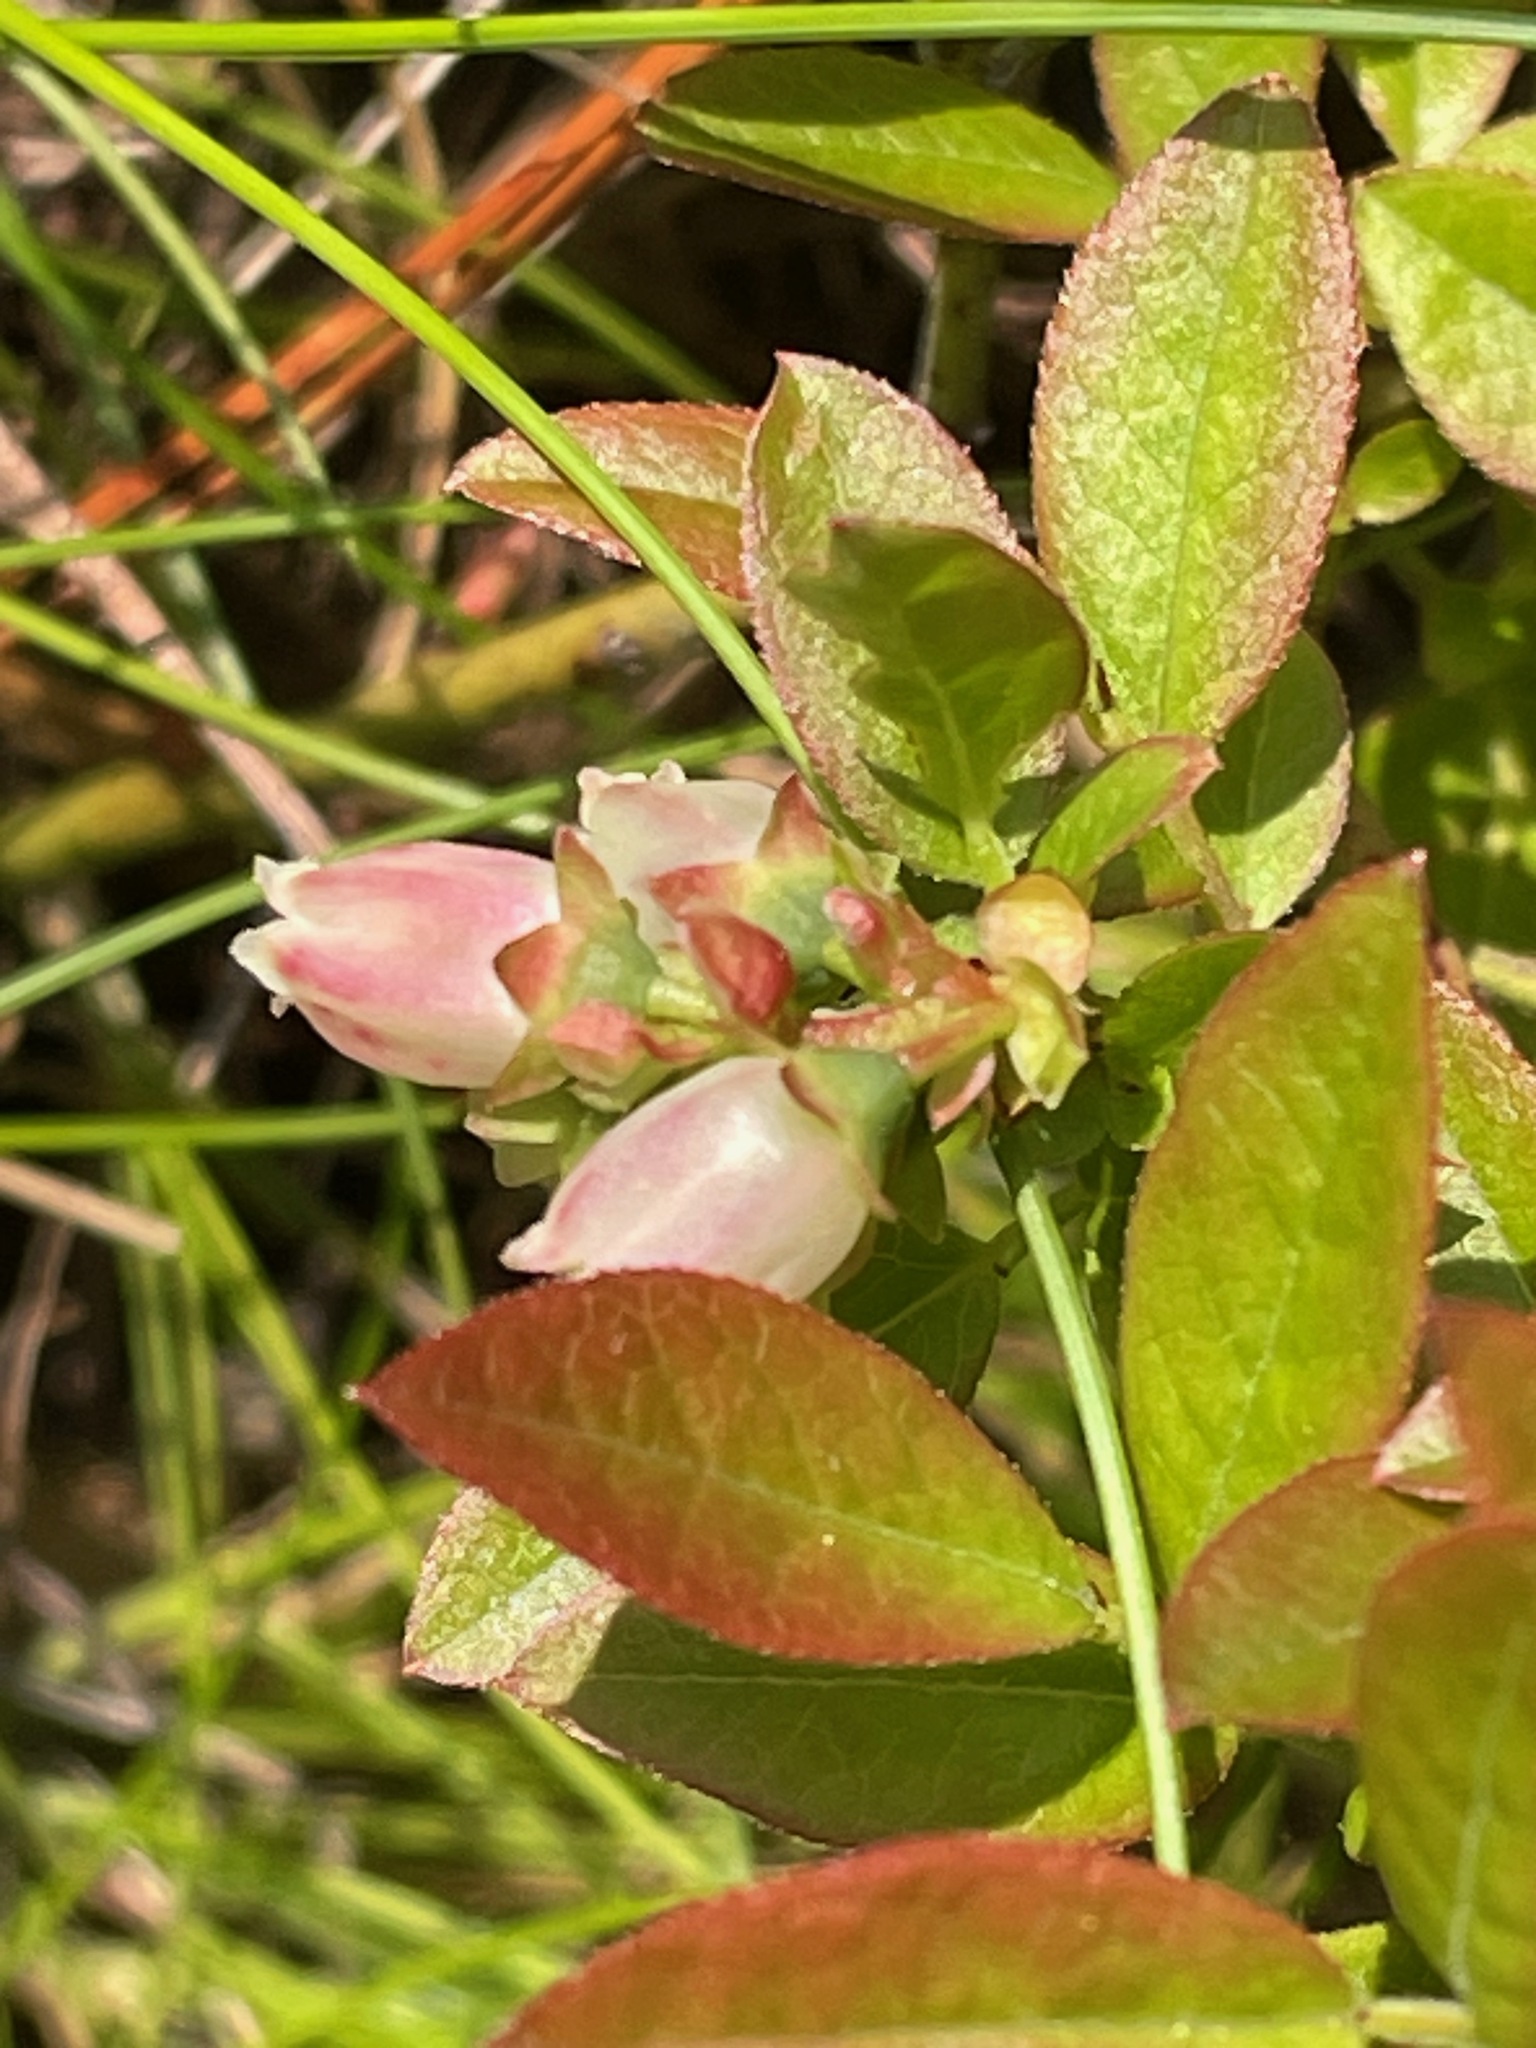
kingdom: Plantae
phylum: Tracheophyta
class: Magnoliopsida
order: Ericales
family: Ericaceae
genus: Vaccinium
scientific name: Vaccinium angustifolium
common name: Early lowbush blueberry
